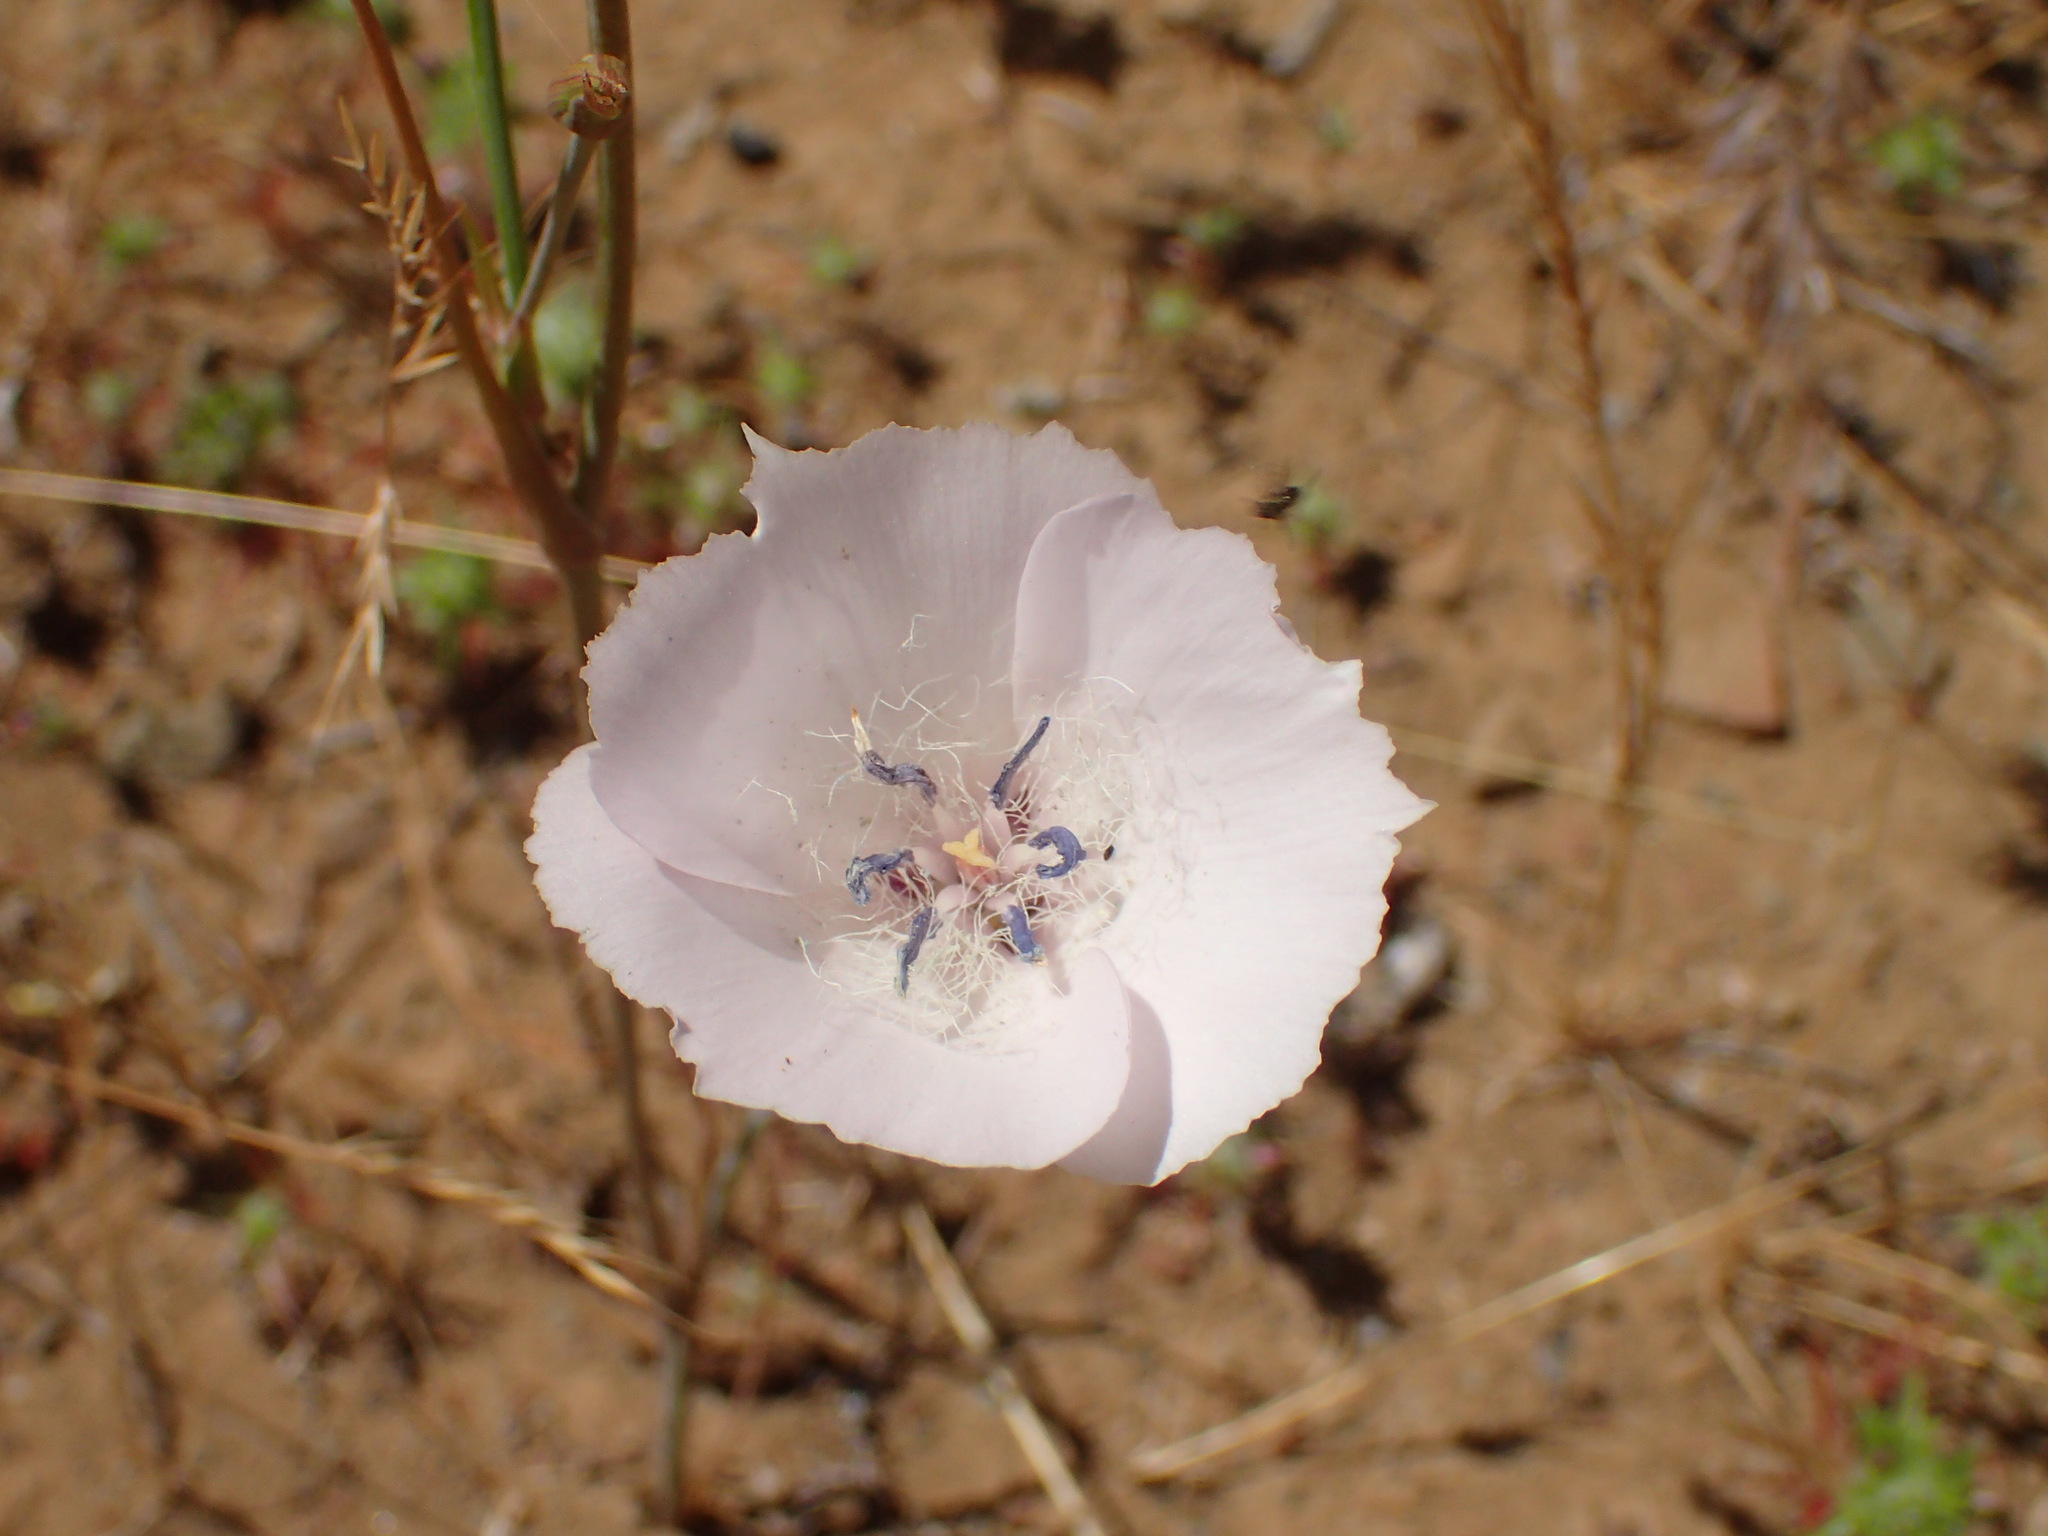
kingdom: Plantae
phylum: Tracheophyta
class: Liliopsida
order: Liliales
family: Liliaceae
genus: Calochortus
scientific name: Calochortus splendens
